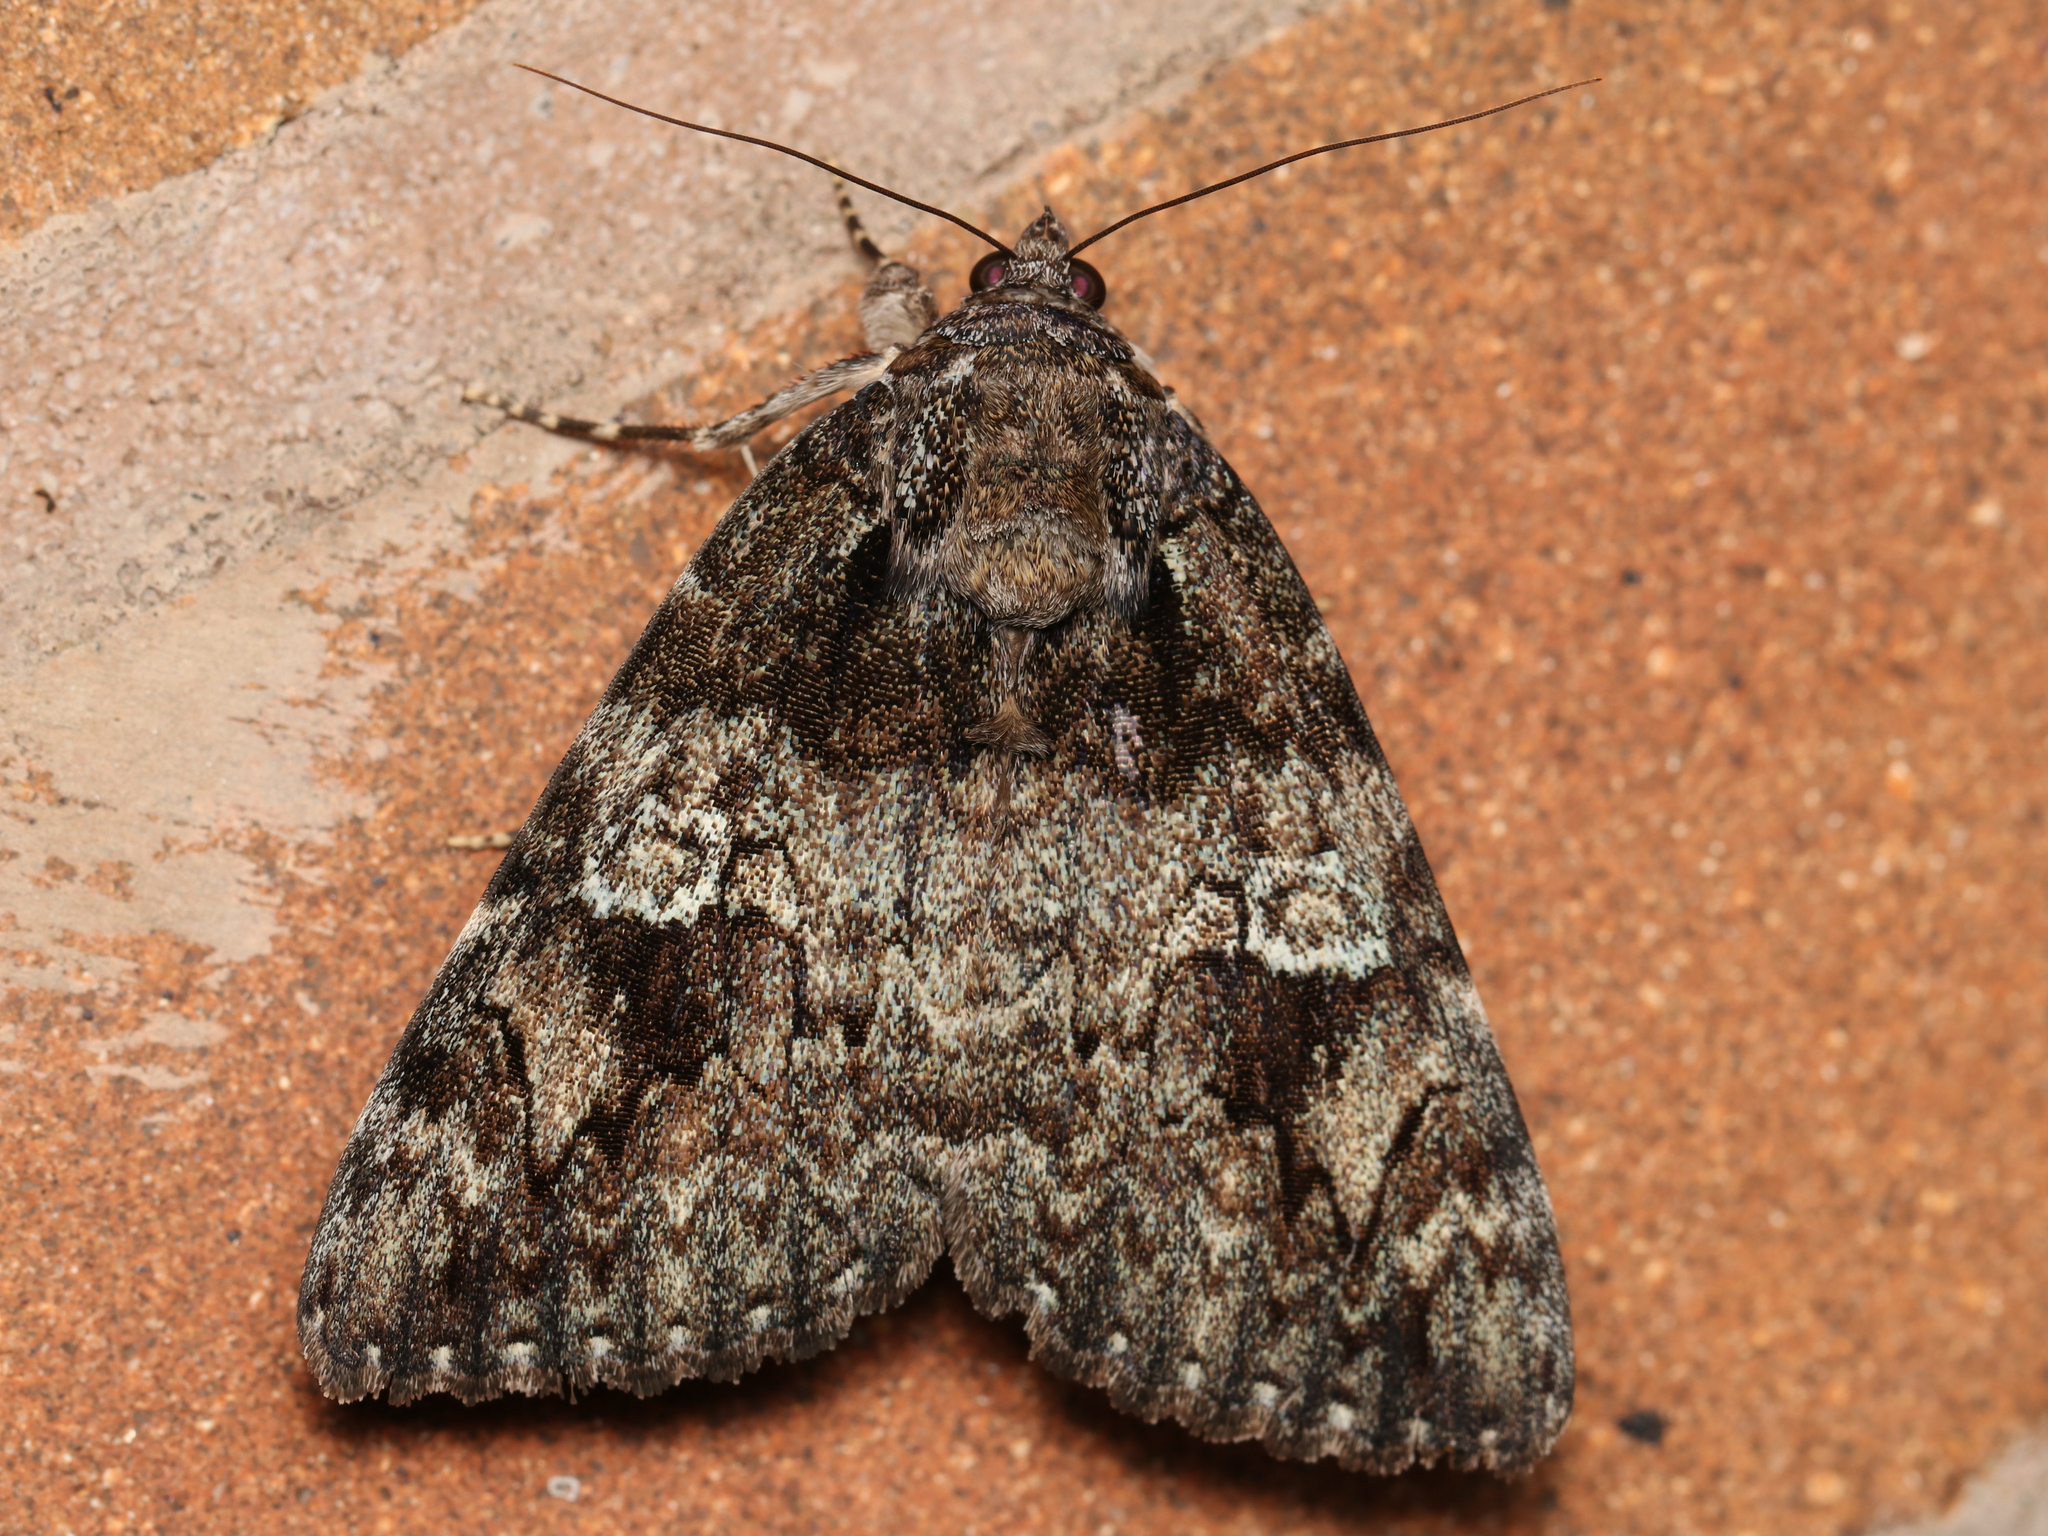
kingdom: Animalia
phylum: Arthropoda
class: Insecta
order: Lepidoptera
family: Erebidae
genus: Catocala
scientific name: Catocala ilia
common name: Ilia underwing
